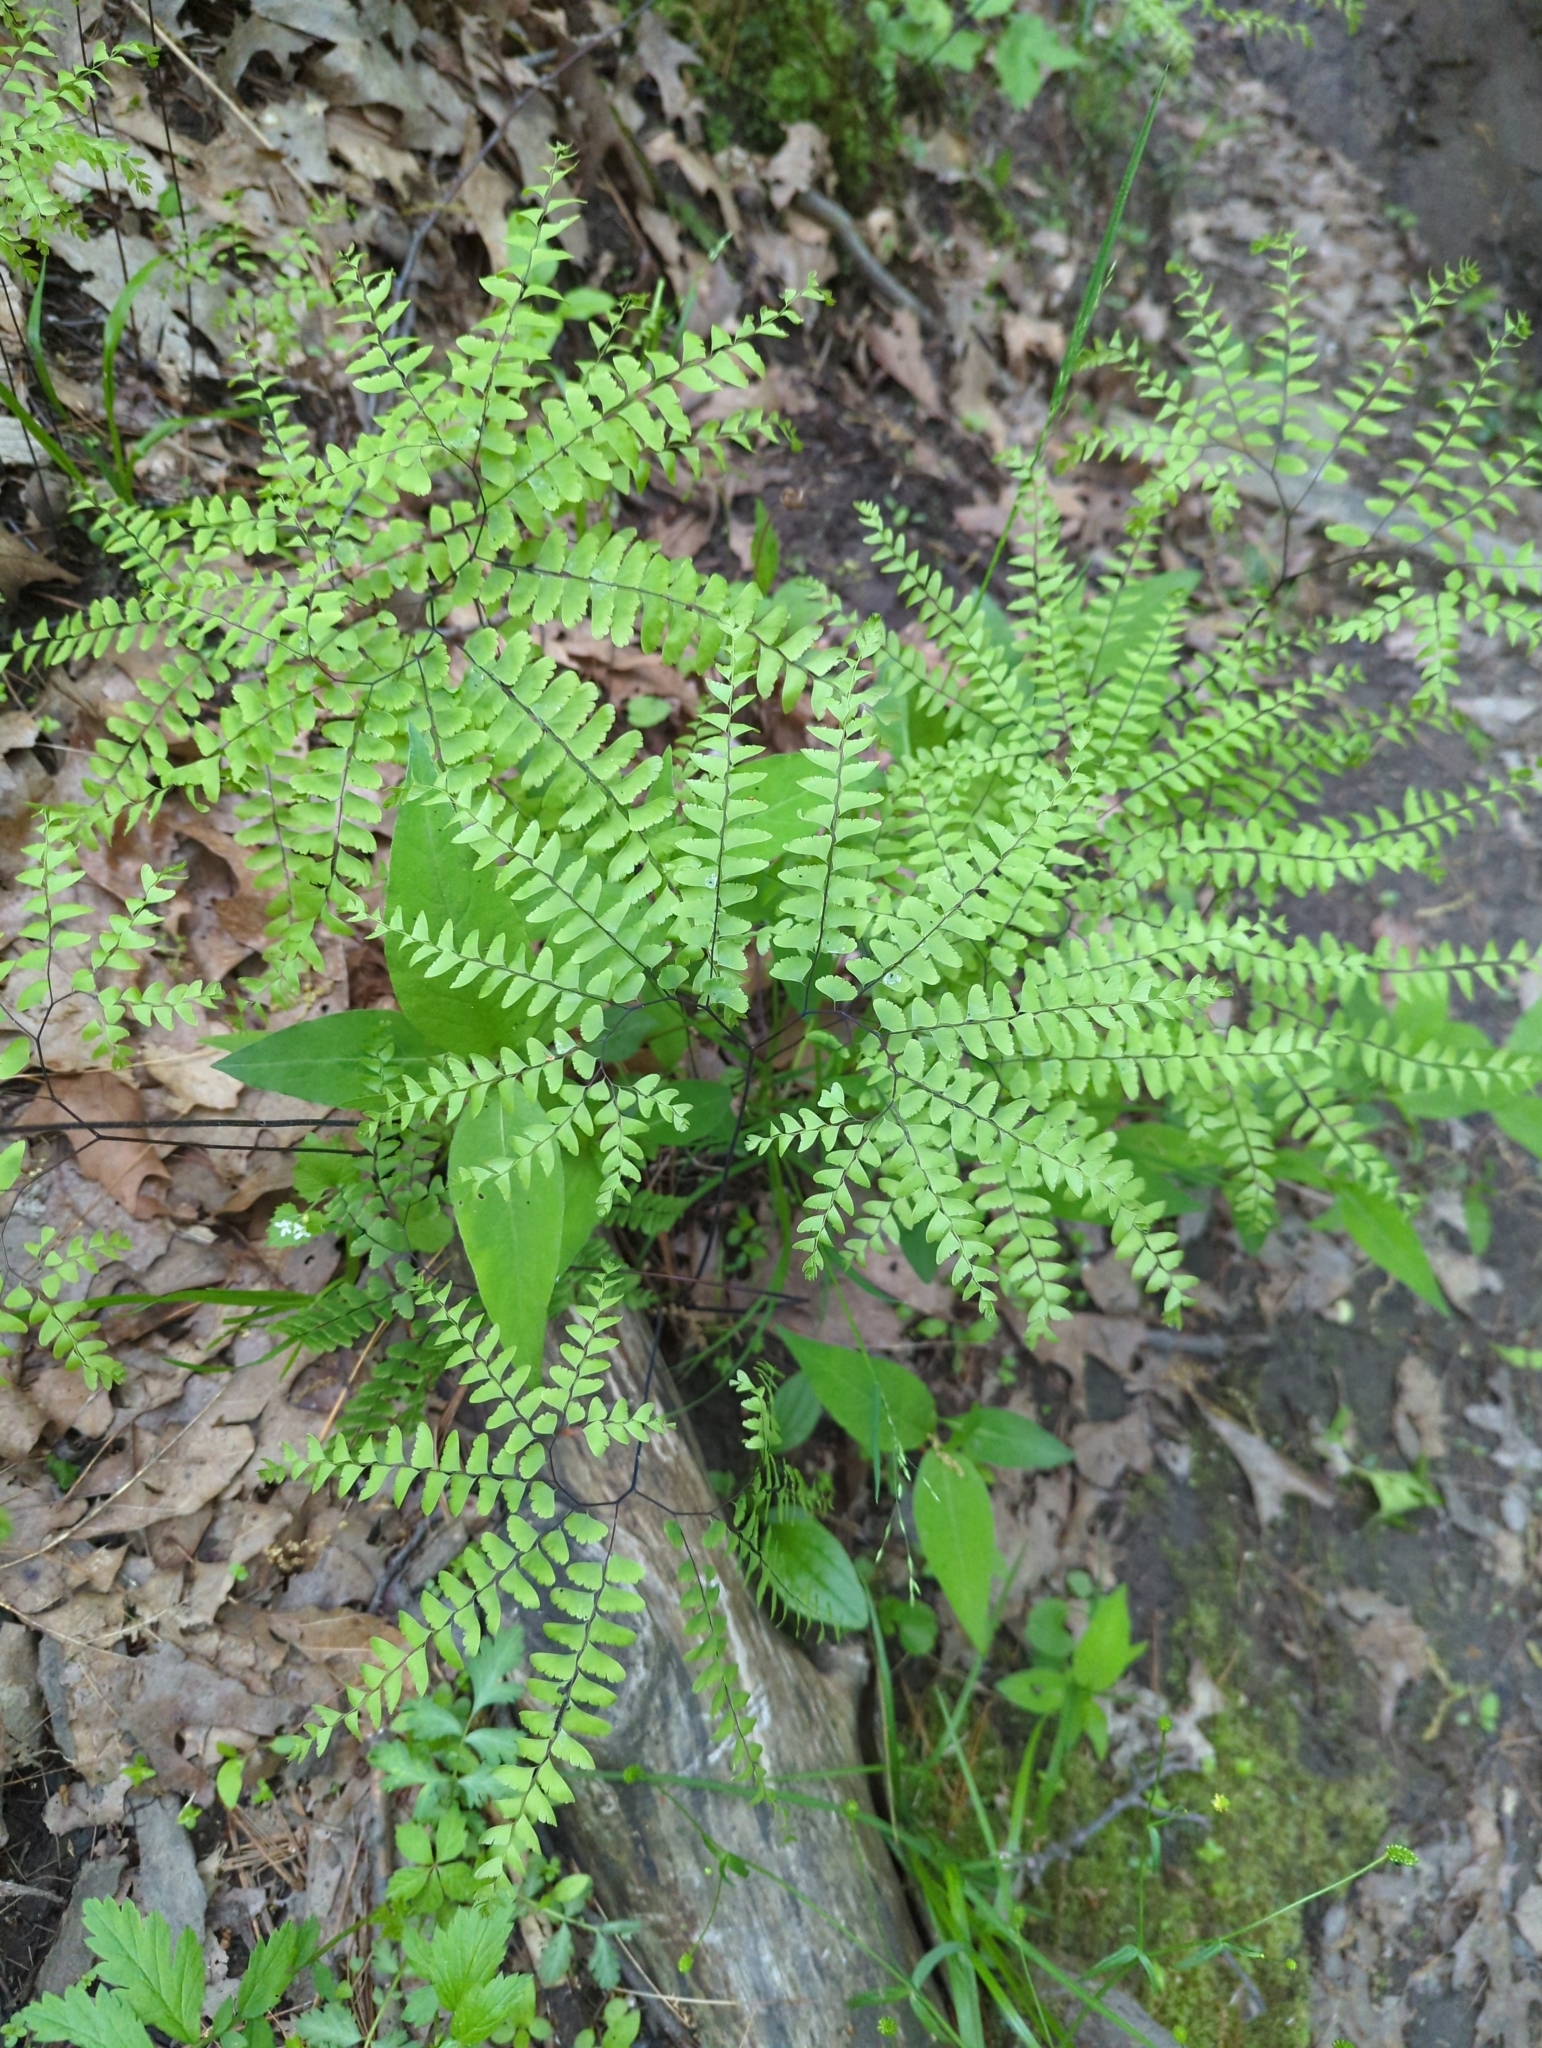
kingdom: Plantae
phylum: Tracheophyta
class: Polypodiopsida
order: Polypodiales
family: Pteridaceae
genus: Adiantum
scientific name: Adiantum pedatum
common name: Five-finger fern
